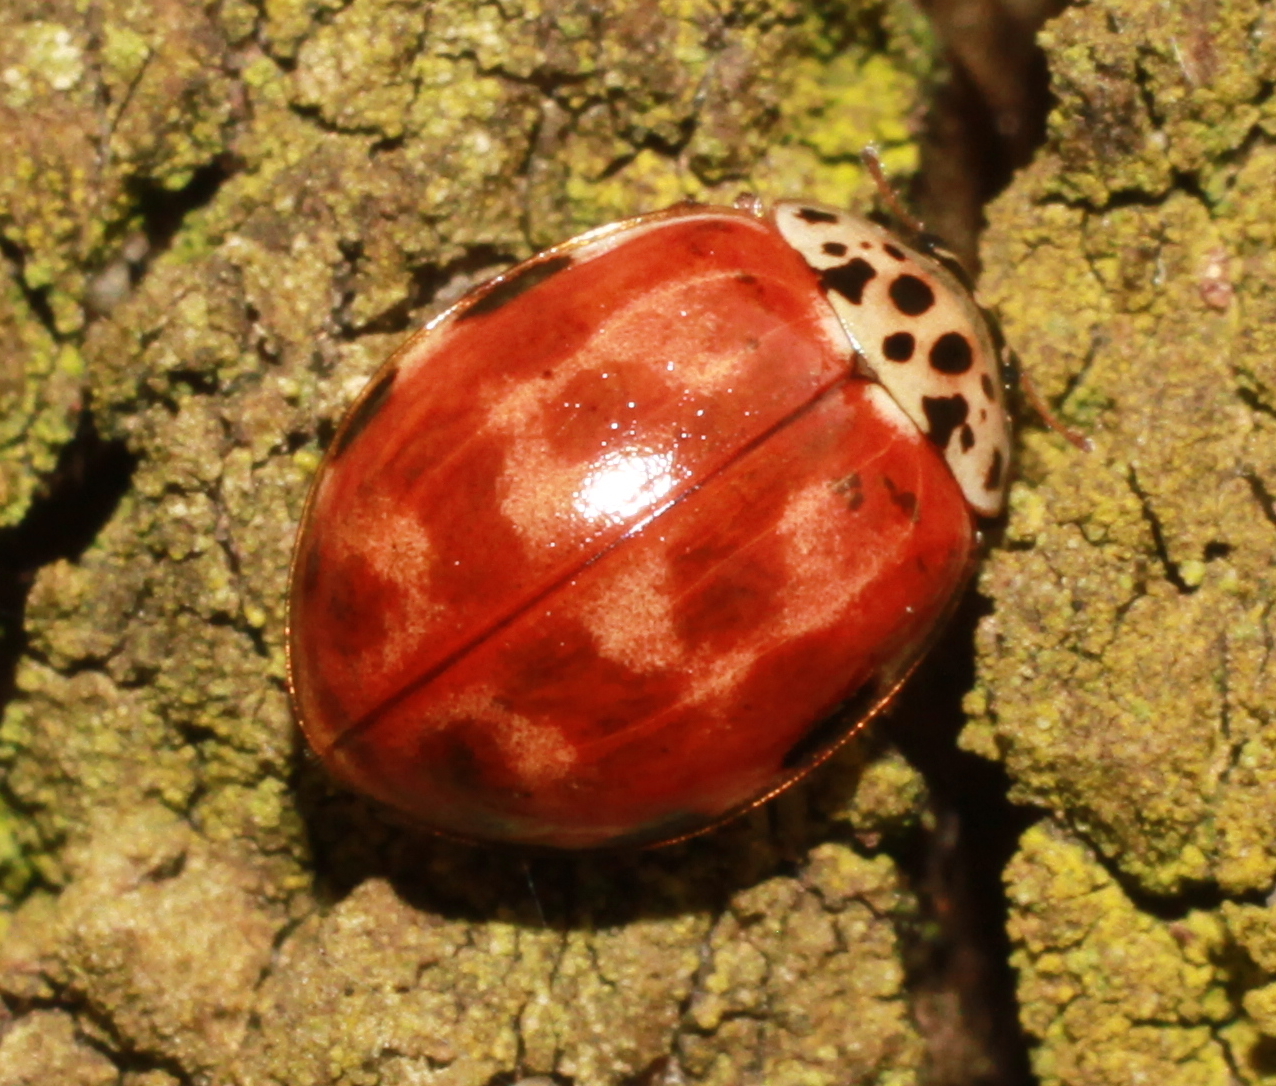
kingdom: Animalia
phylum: Arthropoda
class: Insecta
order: Coleoptera
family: Coccinellidae
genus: Harmonia
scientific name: Harmonia quadripunctata
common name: Cream-streaked ladybird
